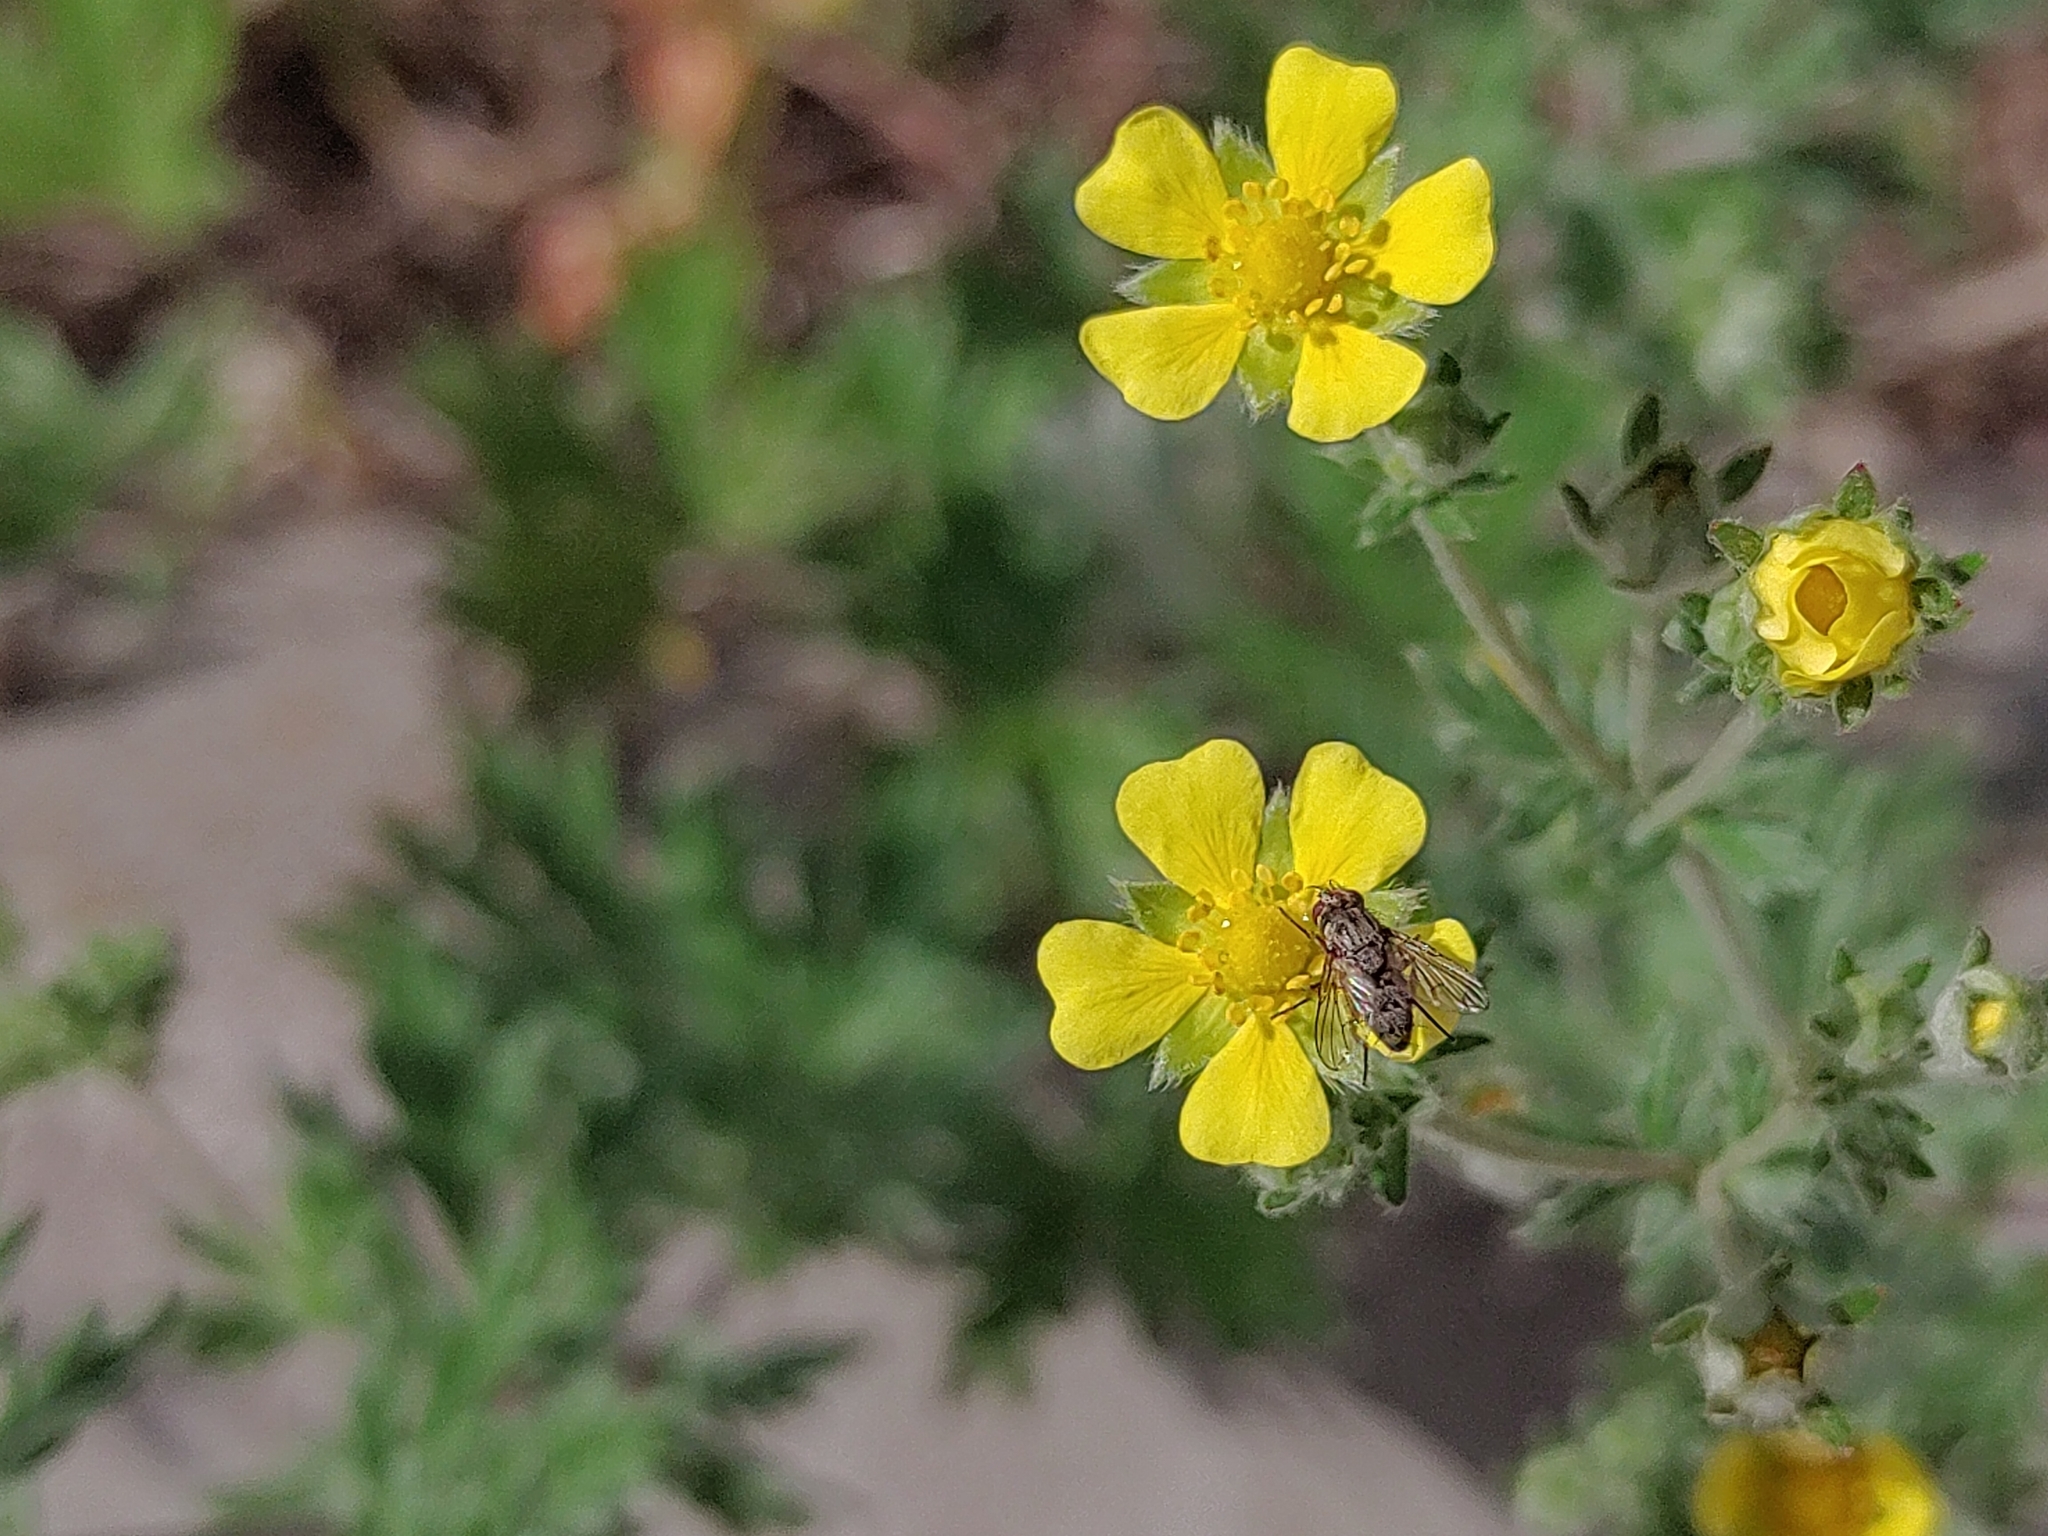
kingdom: Plantae
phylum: Tracheophyta
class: Magnoliopsida
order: Rosales
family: Rosaceae
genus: Potentilla
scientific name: Potentilla argentea
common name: Hoary cinquefoil
